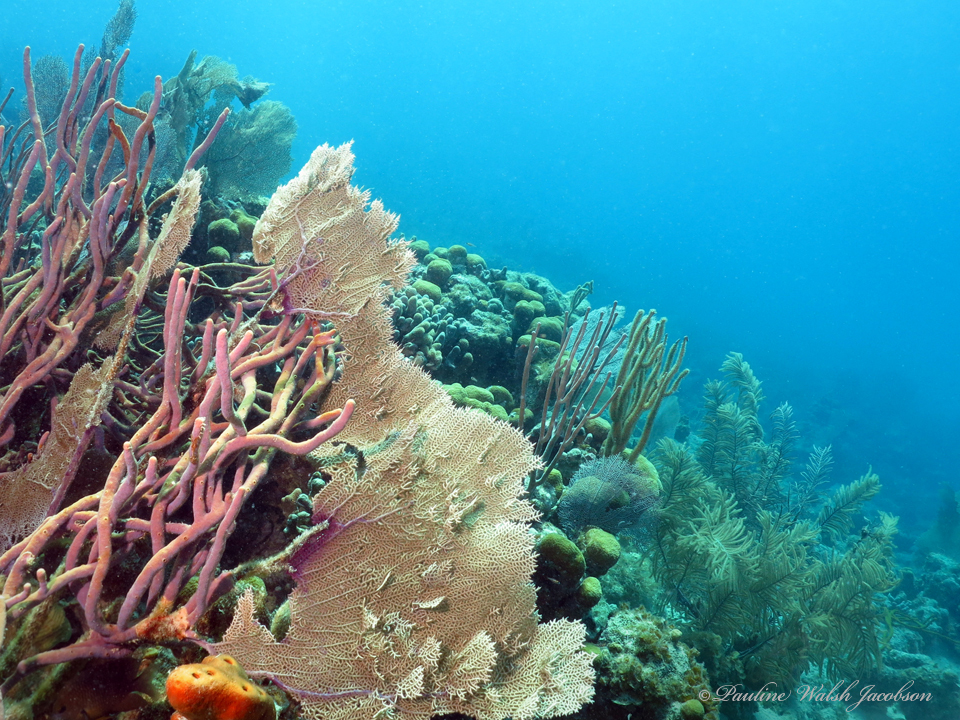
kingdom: Animalia
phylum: Porifera
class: Demospongiae
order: Haplosclerida
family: Niphatidae
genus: Amphimedon
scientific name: Amphimedon compressa
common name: Red sponge
